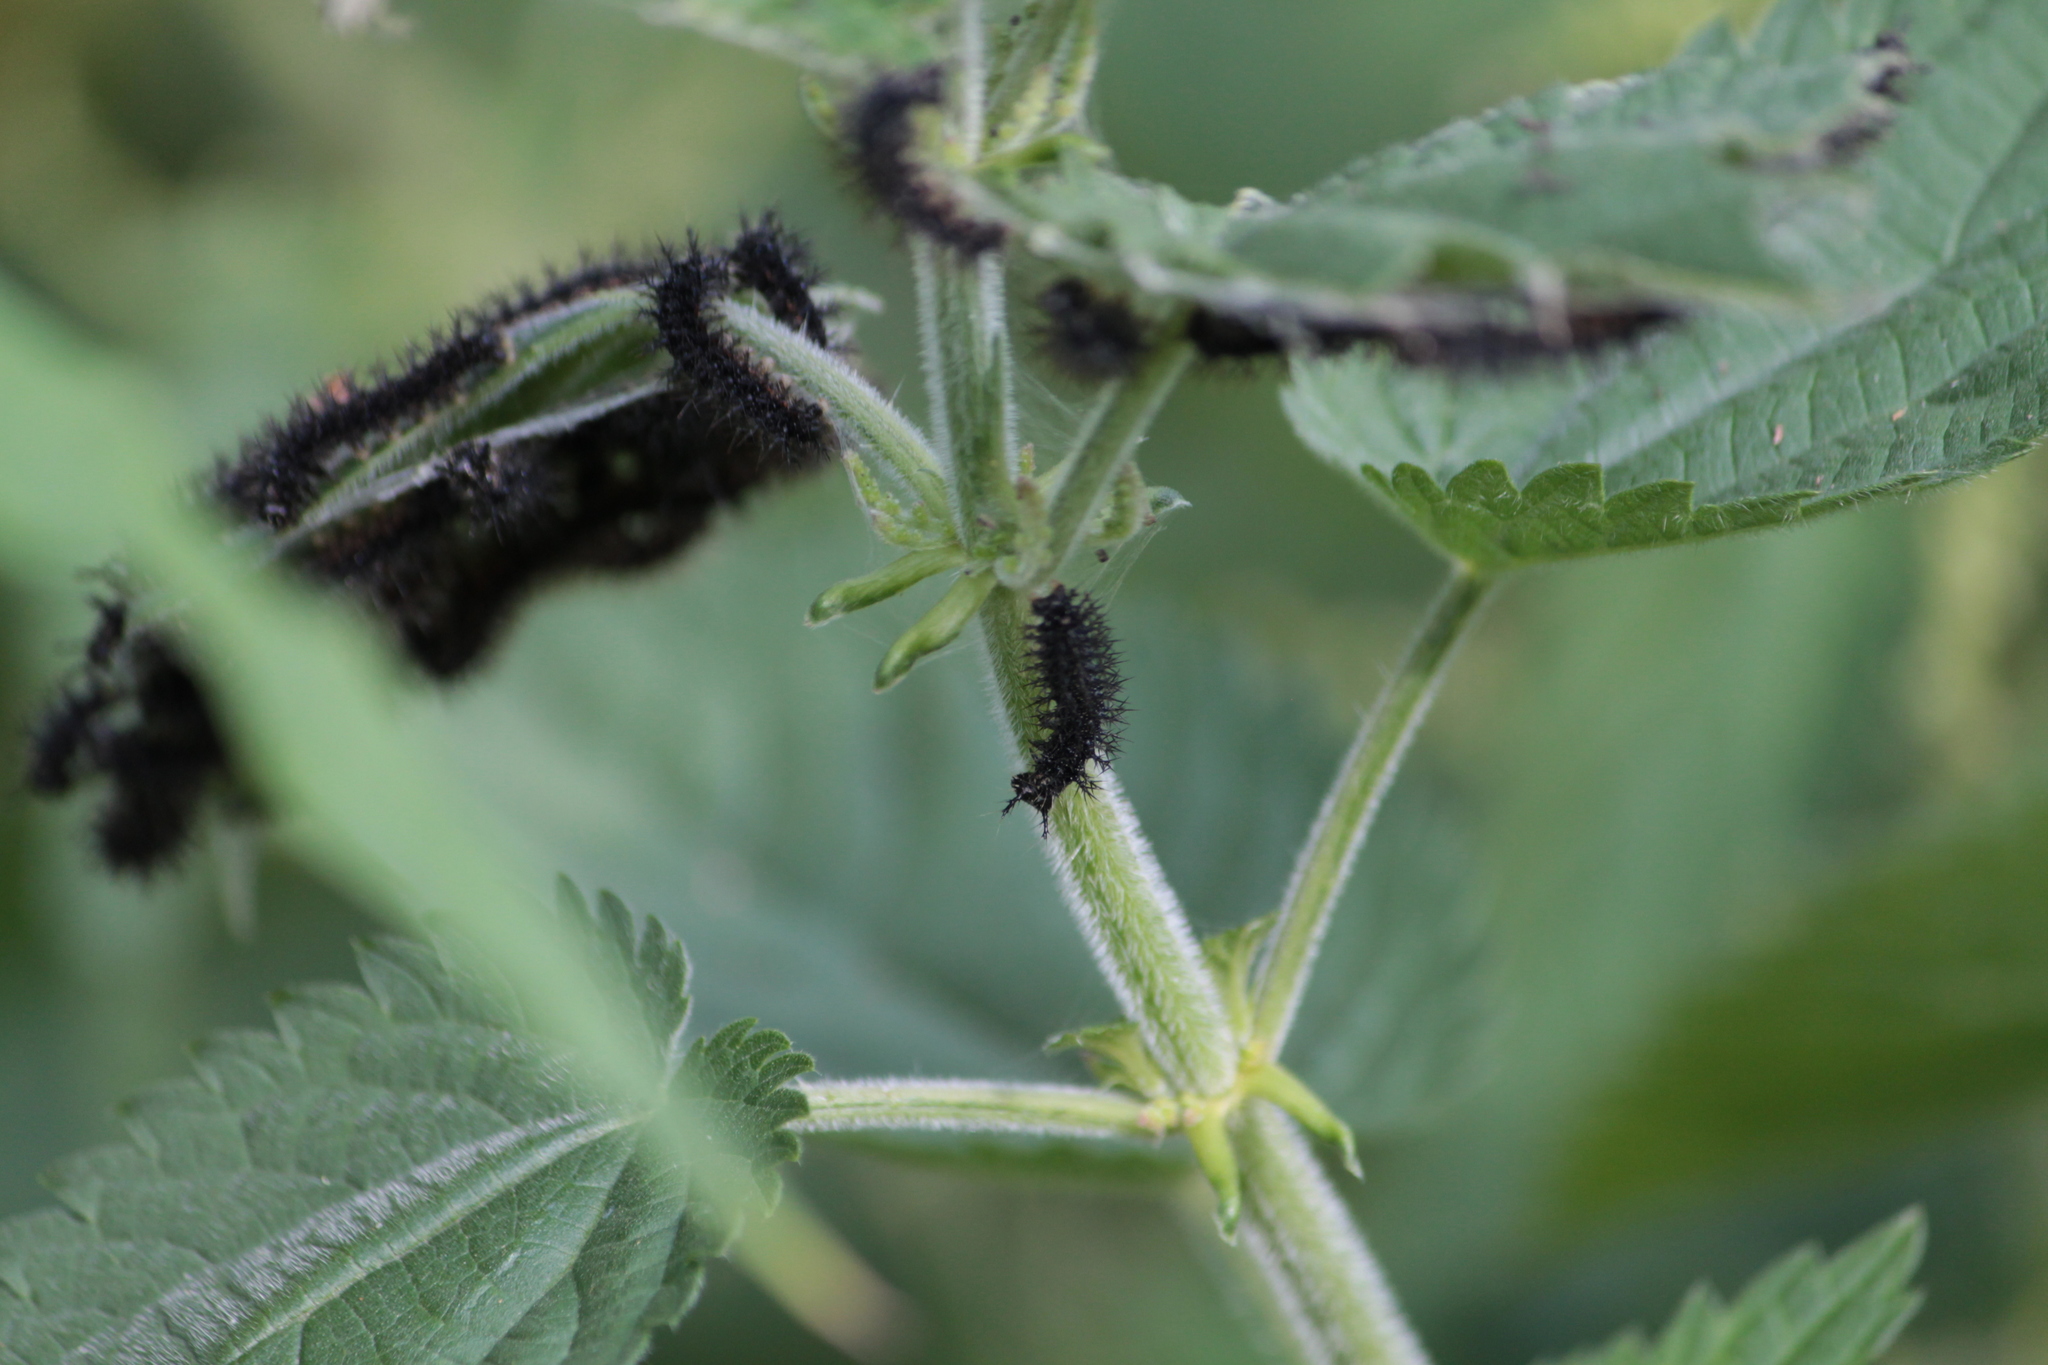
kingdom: Animalia
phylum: Arthropoda
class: Insecta
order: Lepidoptera
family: Nymphalidae
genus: Araschnia
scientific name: Araschnia levana
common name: Map butterfly
